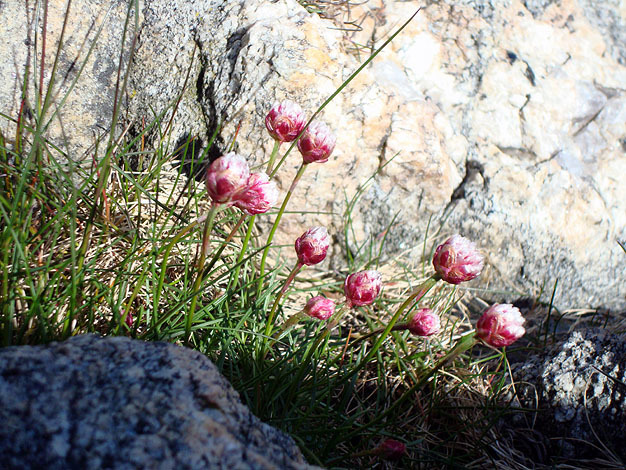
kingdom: Plantae
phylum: Tracheophyta
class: Magnoliopsida
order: Caryophyllales
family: Plumbaginaceae
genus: Armeria
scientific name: Armeria maritima
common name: Thrift
